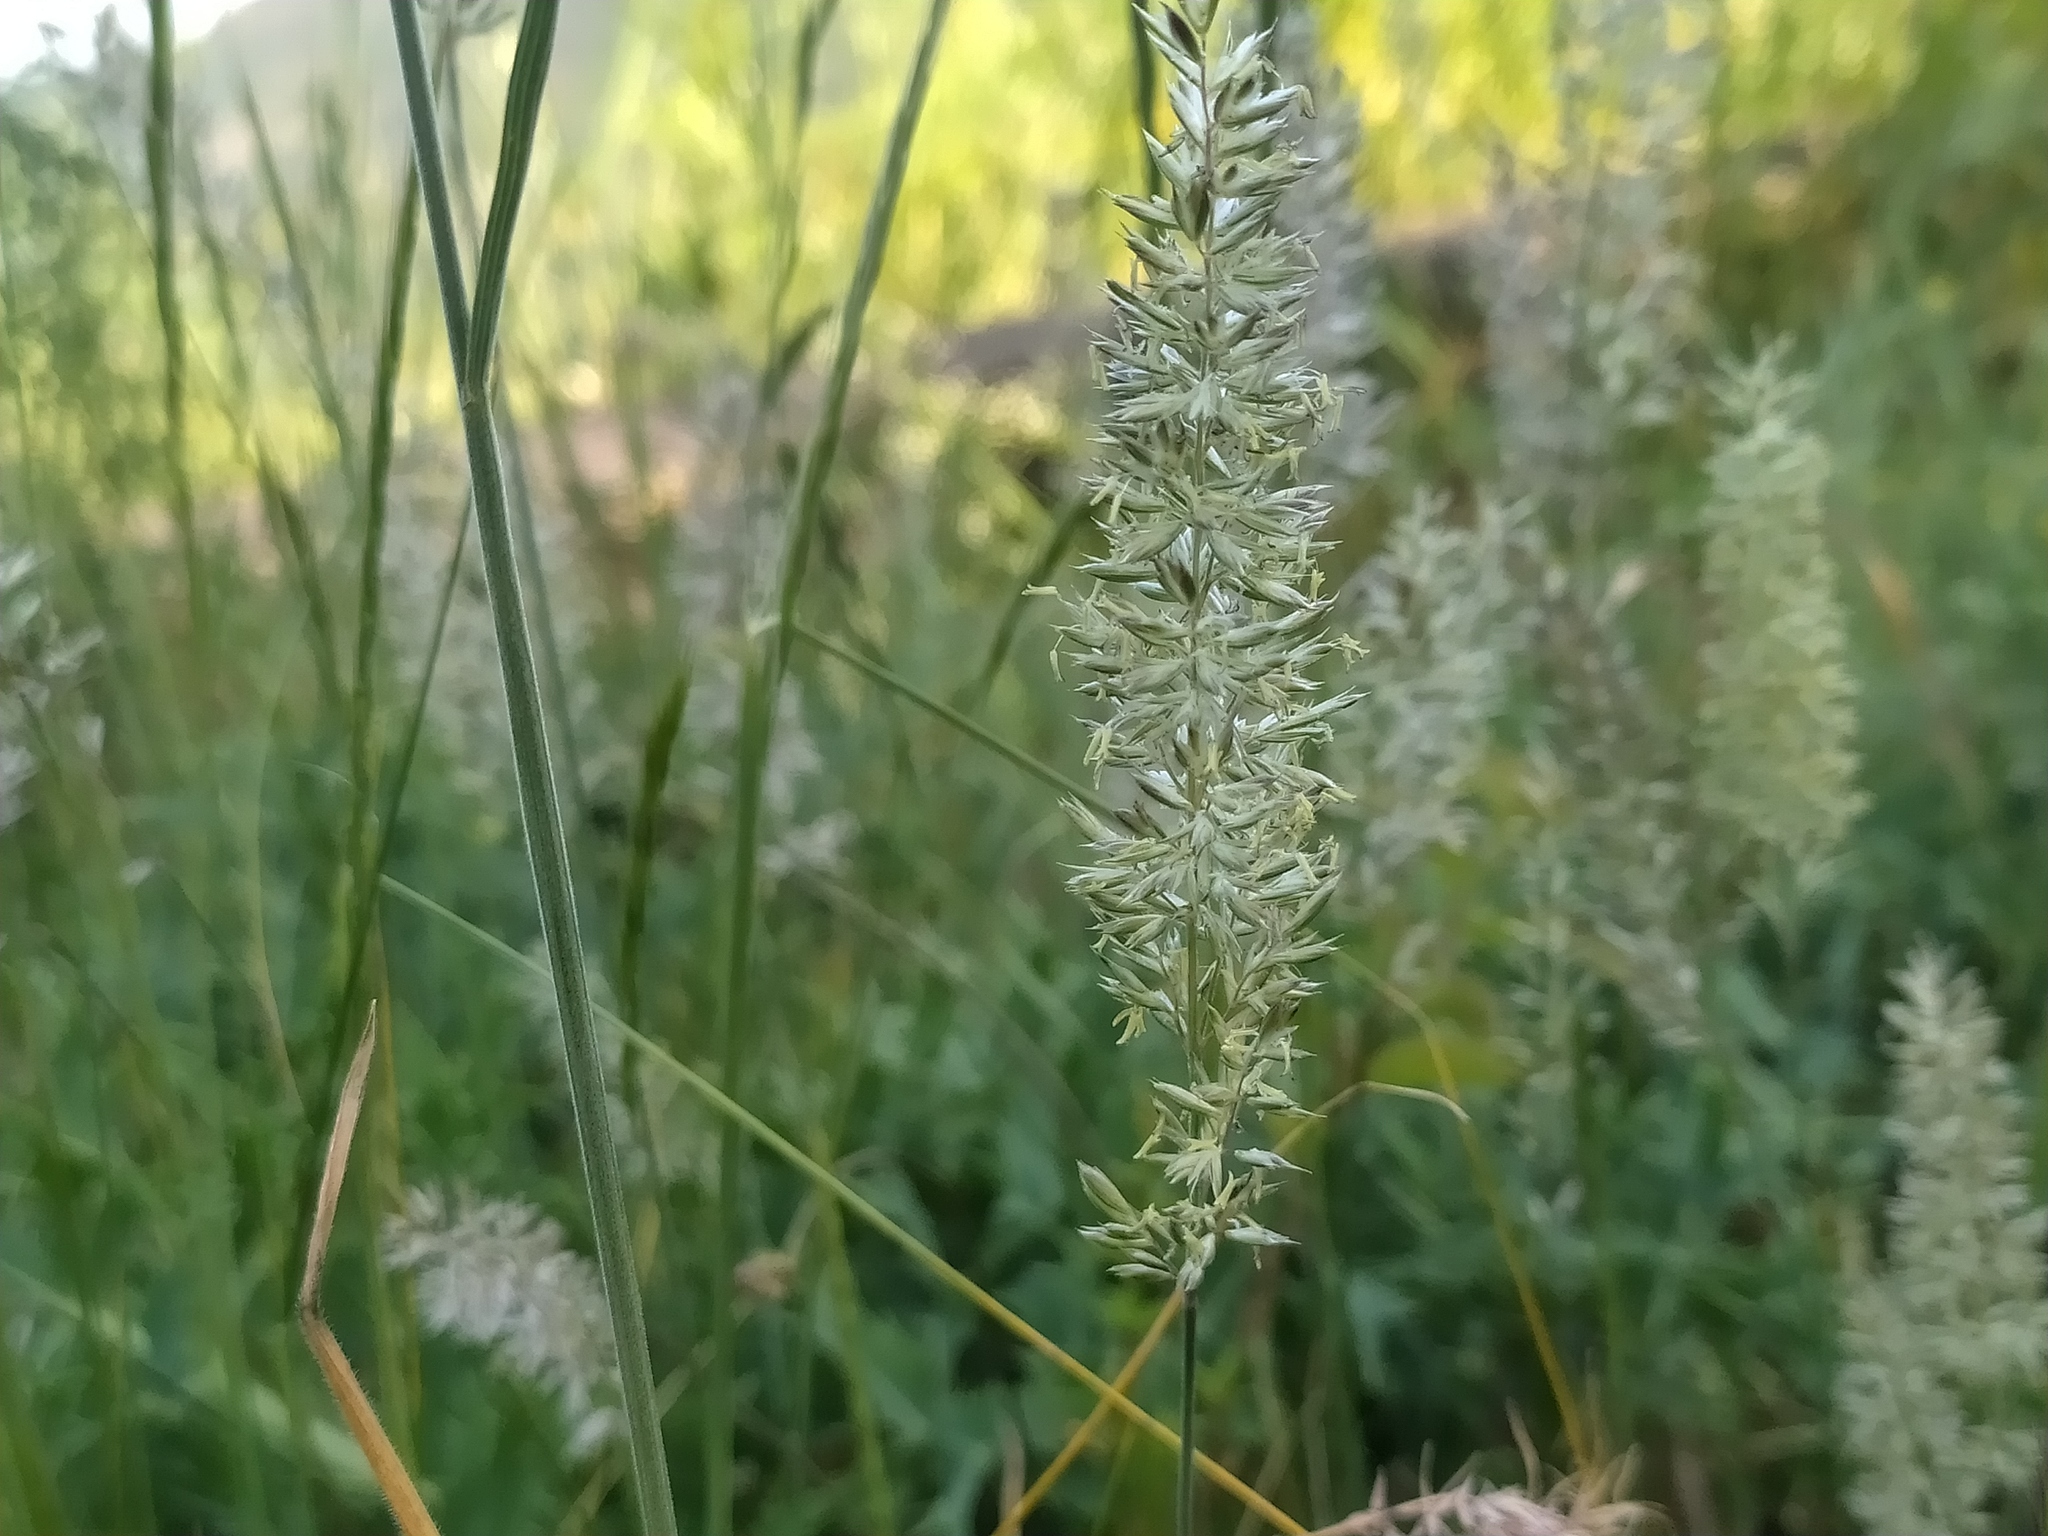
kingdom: Plantae
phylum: Tracheophyta
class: Liliopsida
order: Poales
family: Poaceae
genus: Koeleria
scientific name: Koeleria macrantha
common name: Crested hair-grass
